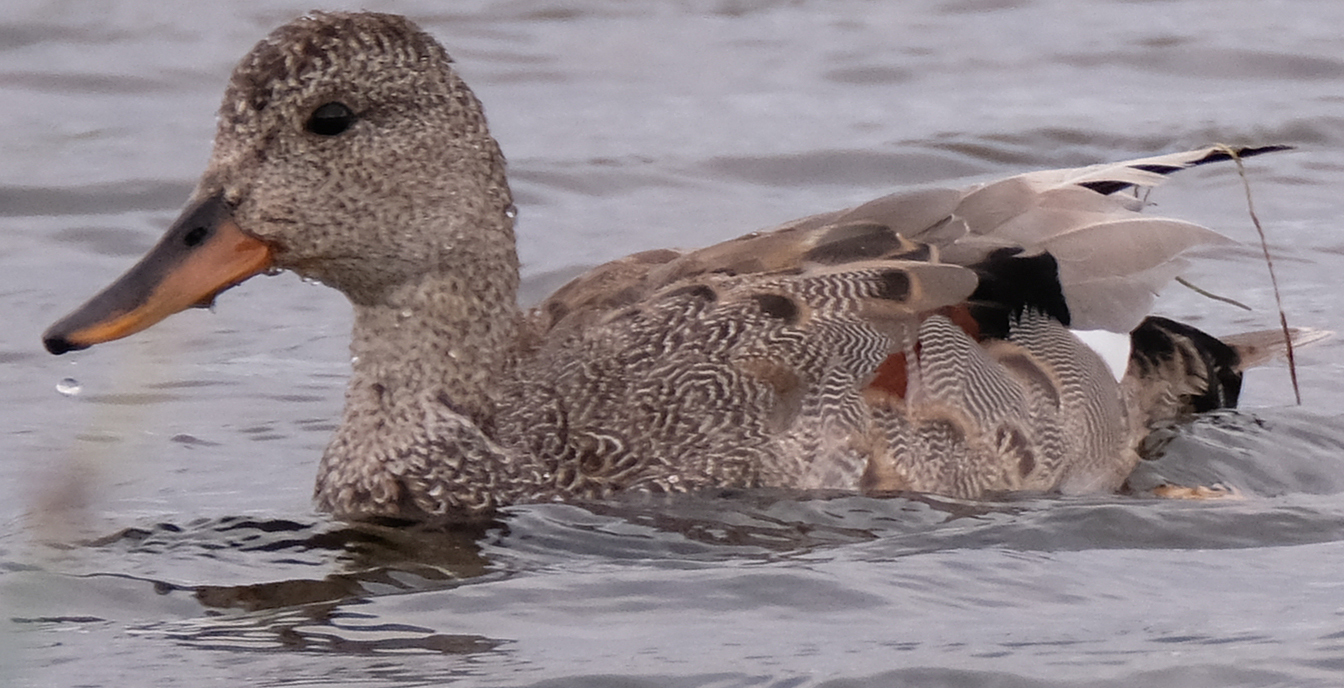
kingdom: Animalia
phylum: Chordata
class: Aves
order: Anseriformes
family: Anatidae
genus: Mareca
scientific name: Mareca strepera
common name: Gadwall
